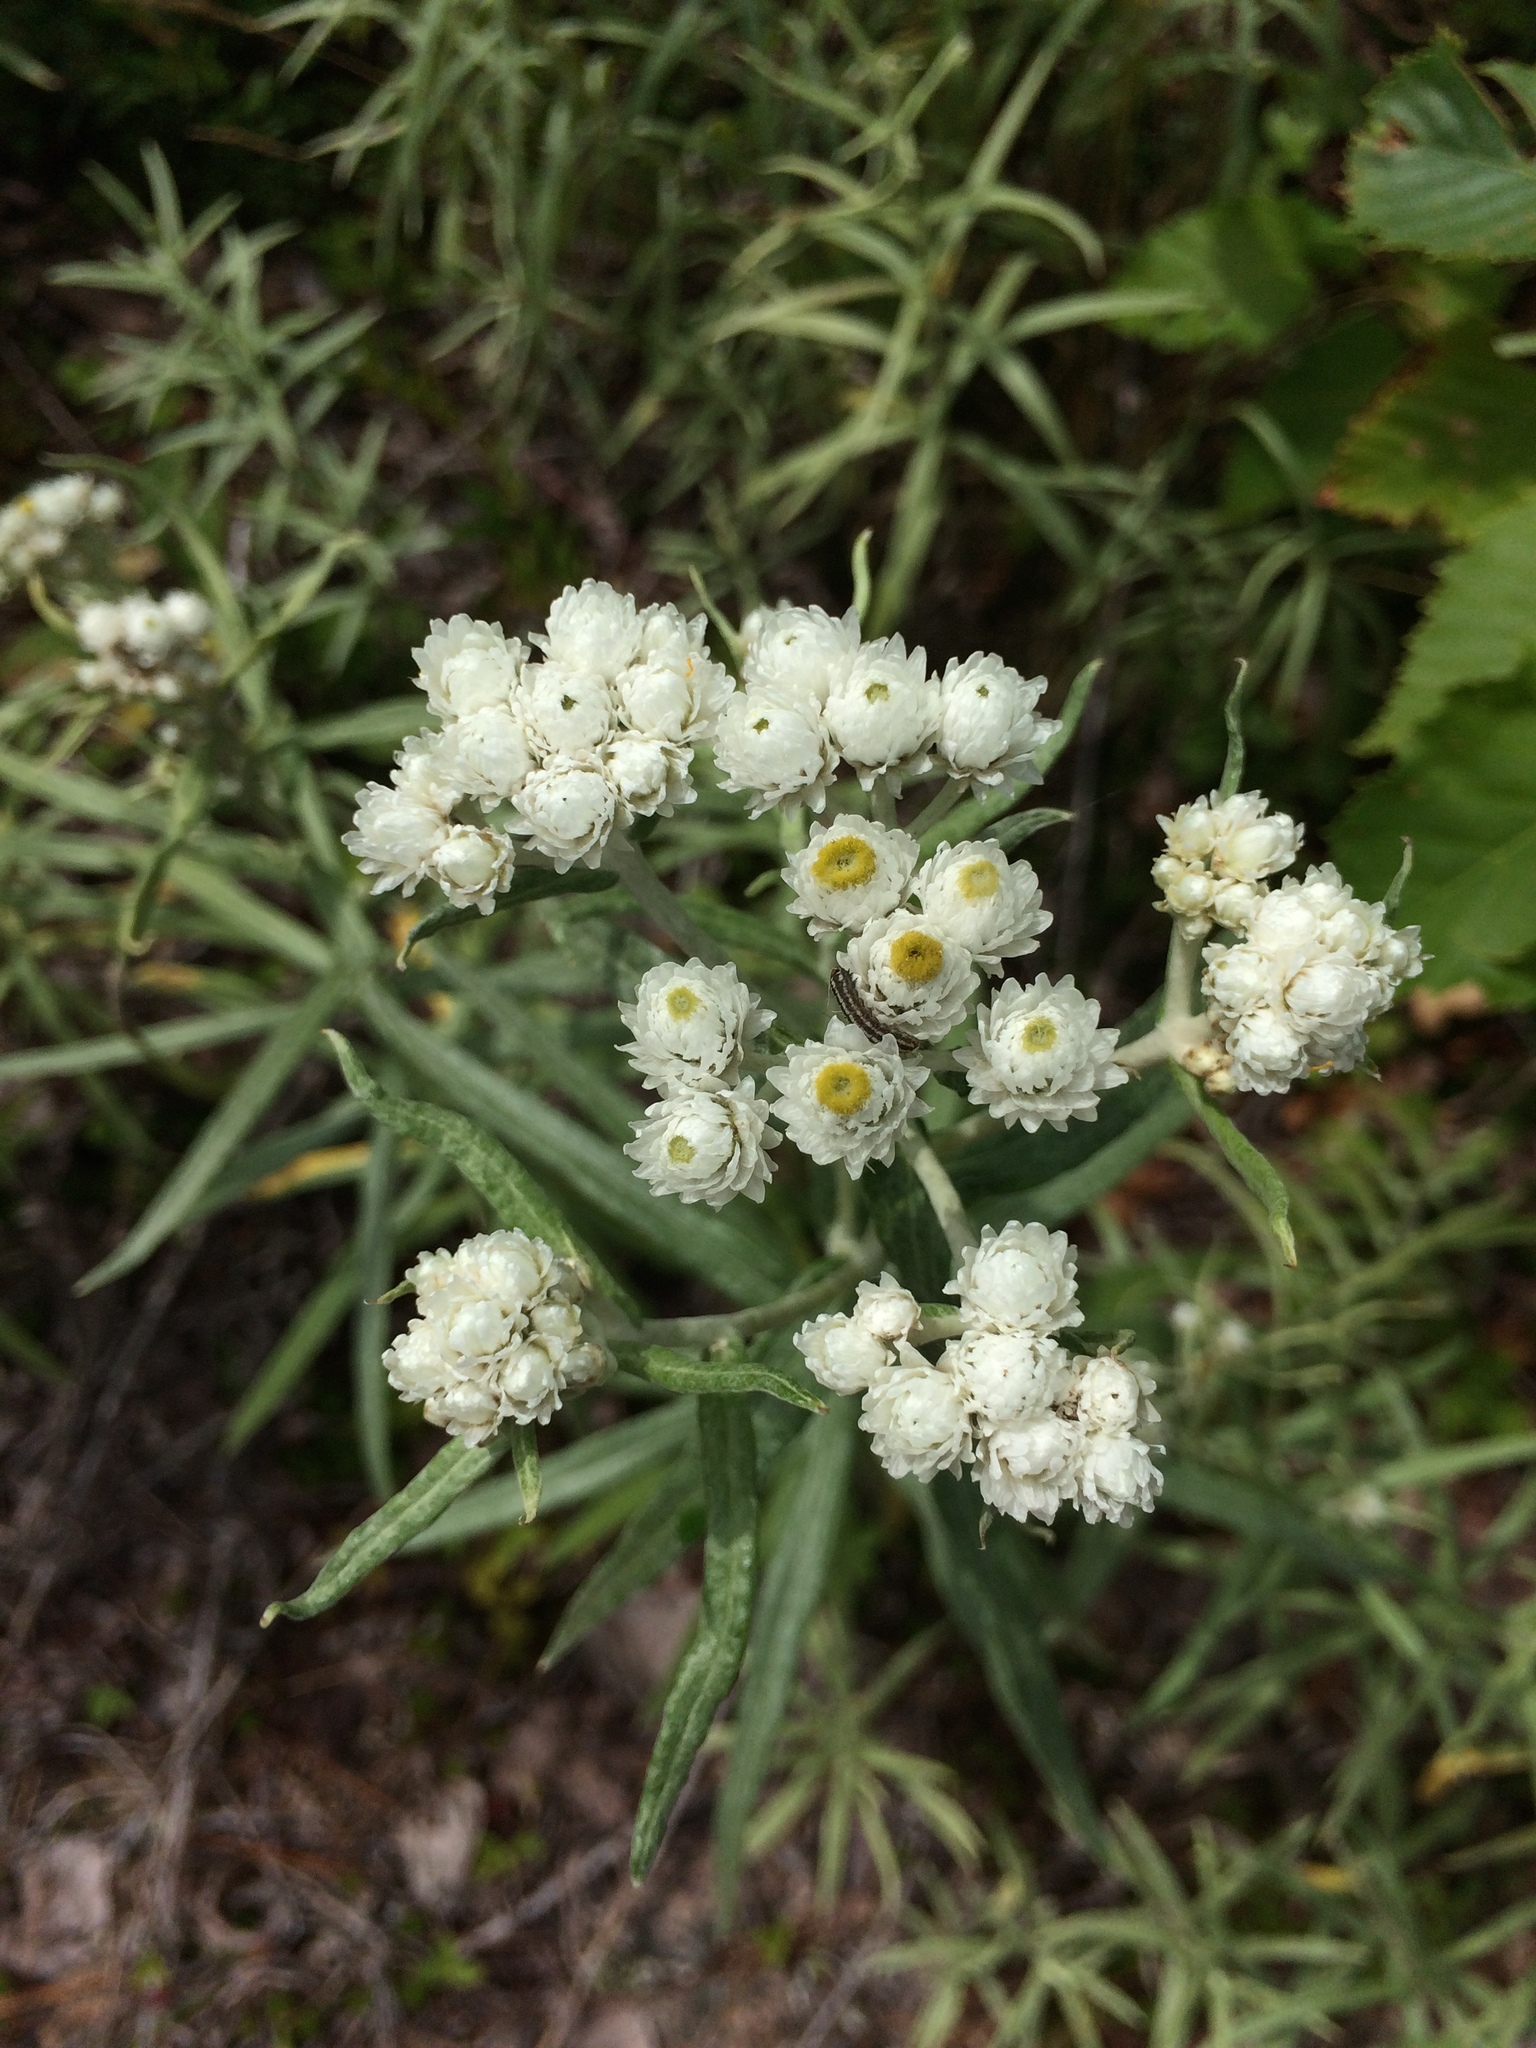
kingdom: Plantae
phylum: Tracheophyta
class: Magnoliopsida
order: Asterales
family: Asteraceae
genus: Anaphalis
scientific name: Anaphalis margaritacea
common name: Pearly everlasting
